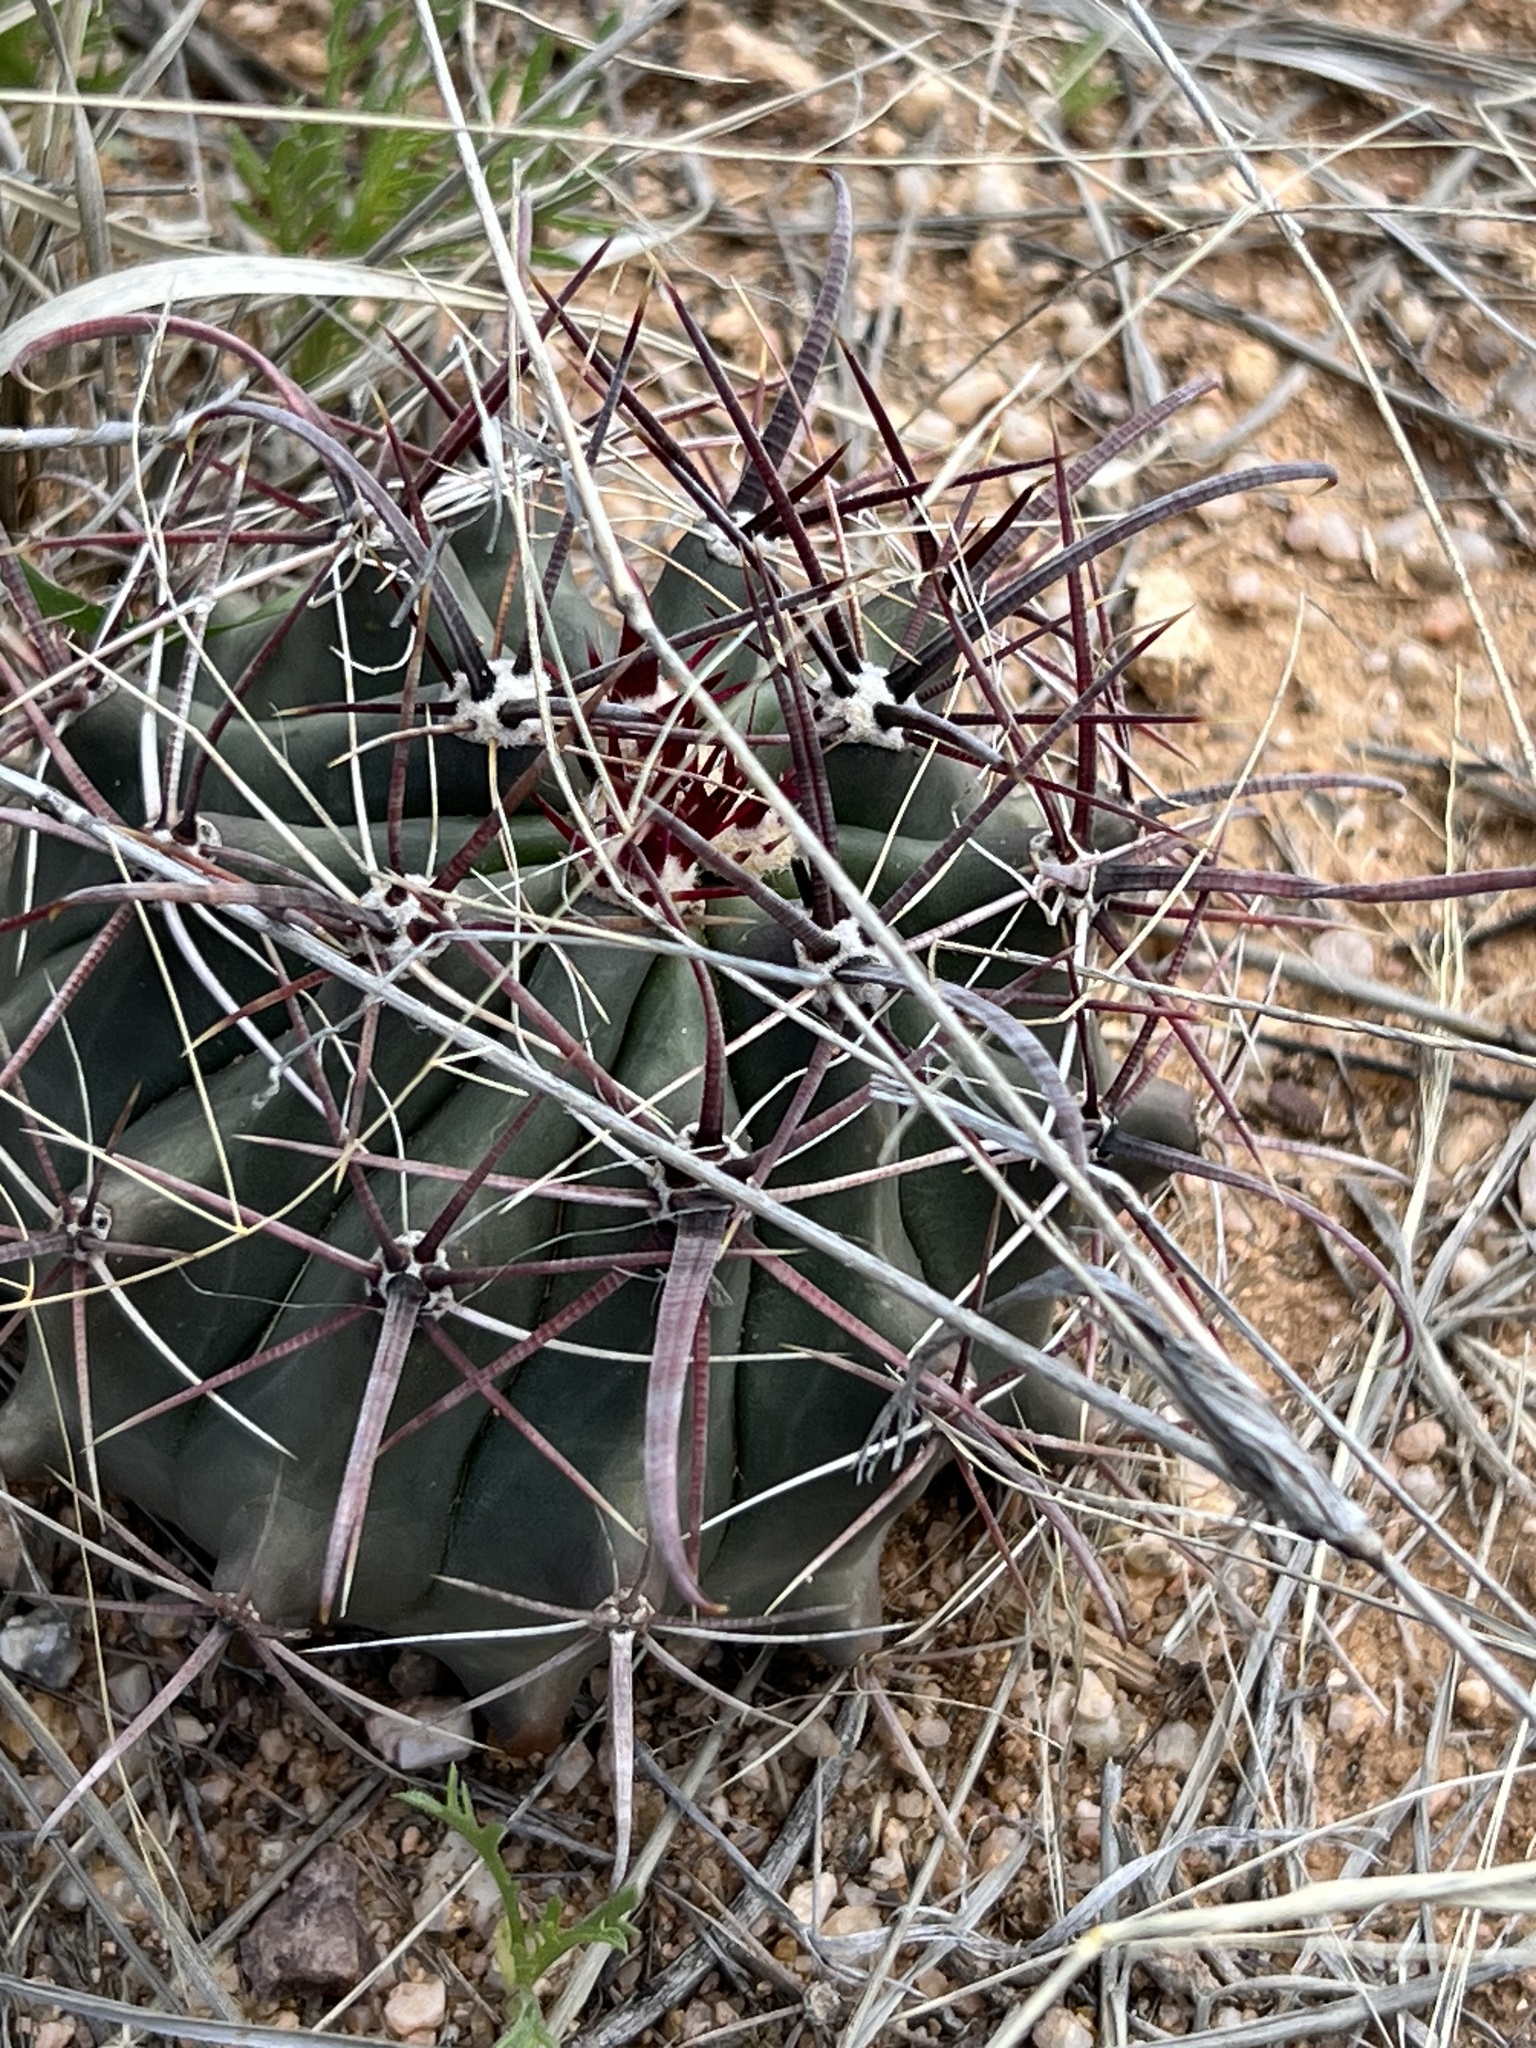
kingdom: Plantae
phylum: Tracheophyta
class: Magnoliopsida
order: Caryophyllales
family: Cactaceae
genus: Ferocactus
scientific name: Ferocactus wislizeni
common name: Candy barrel cactus
